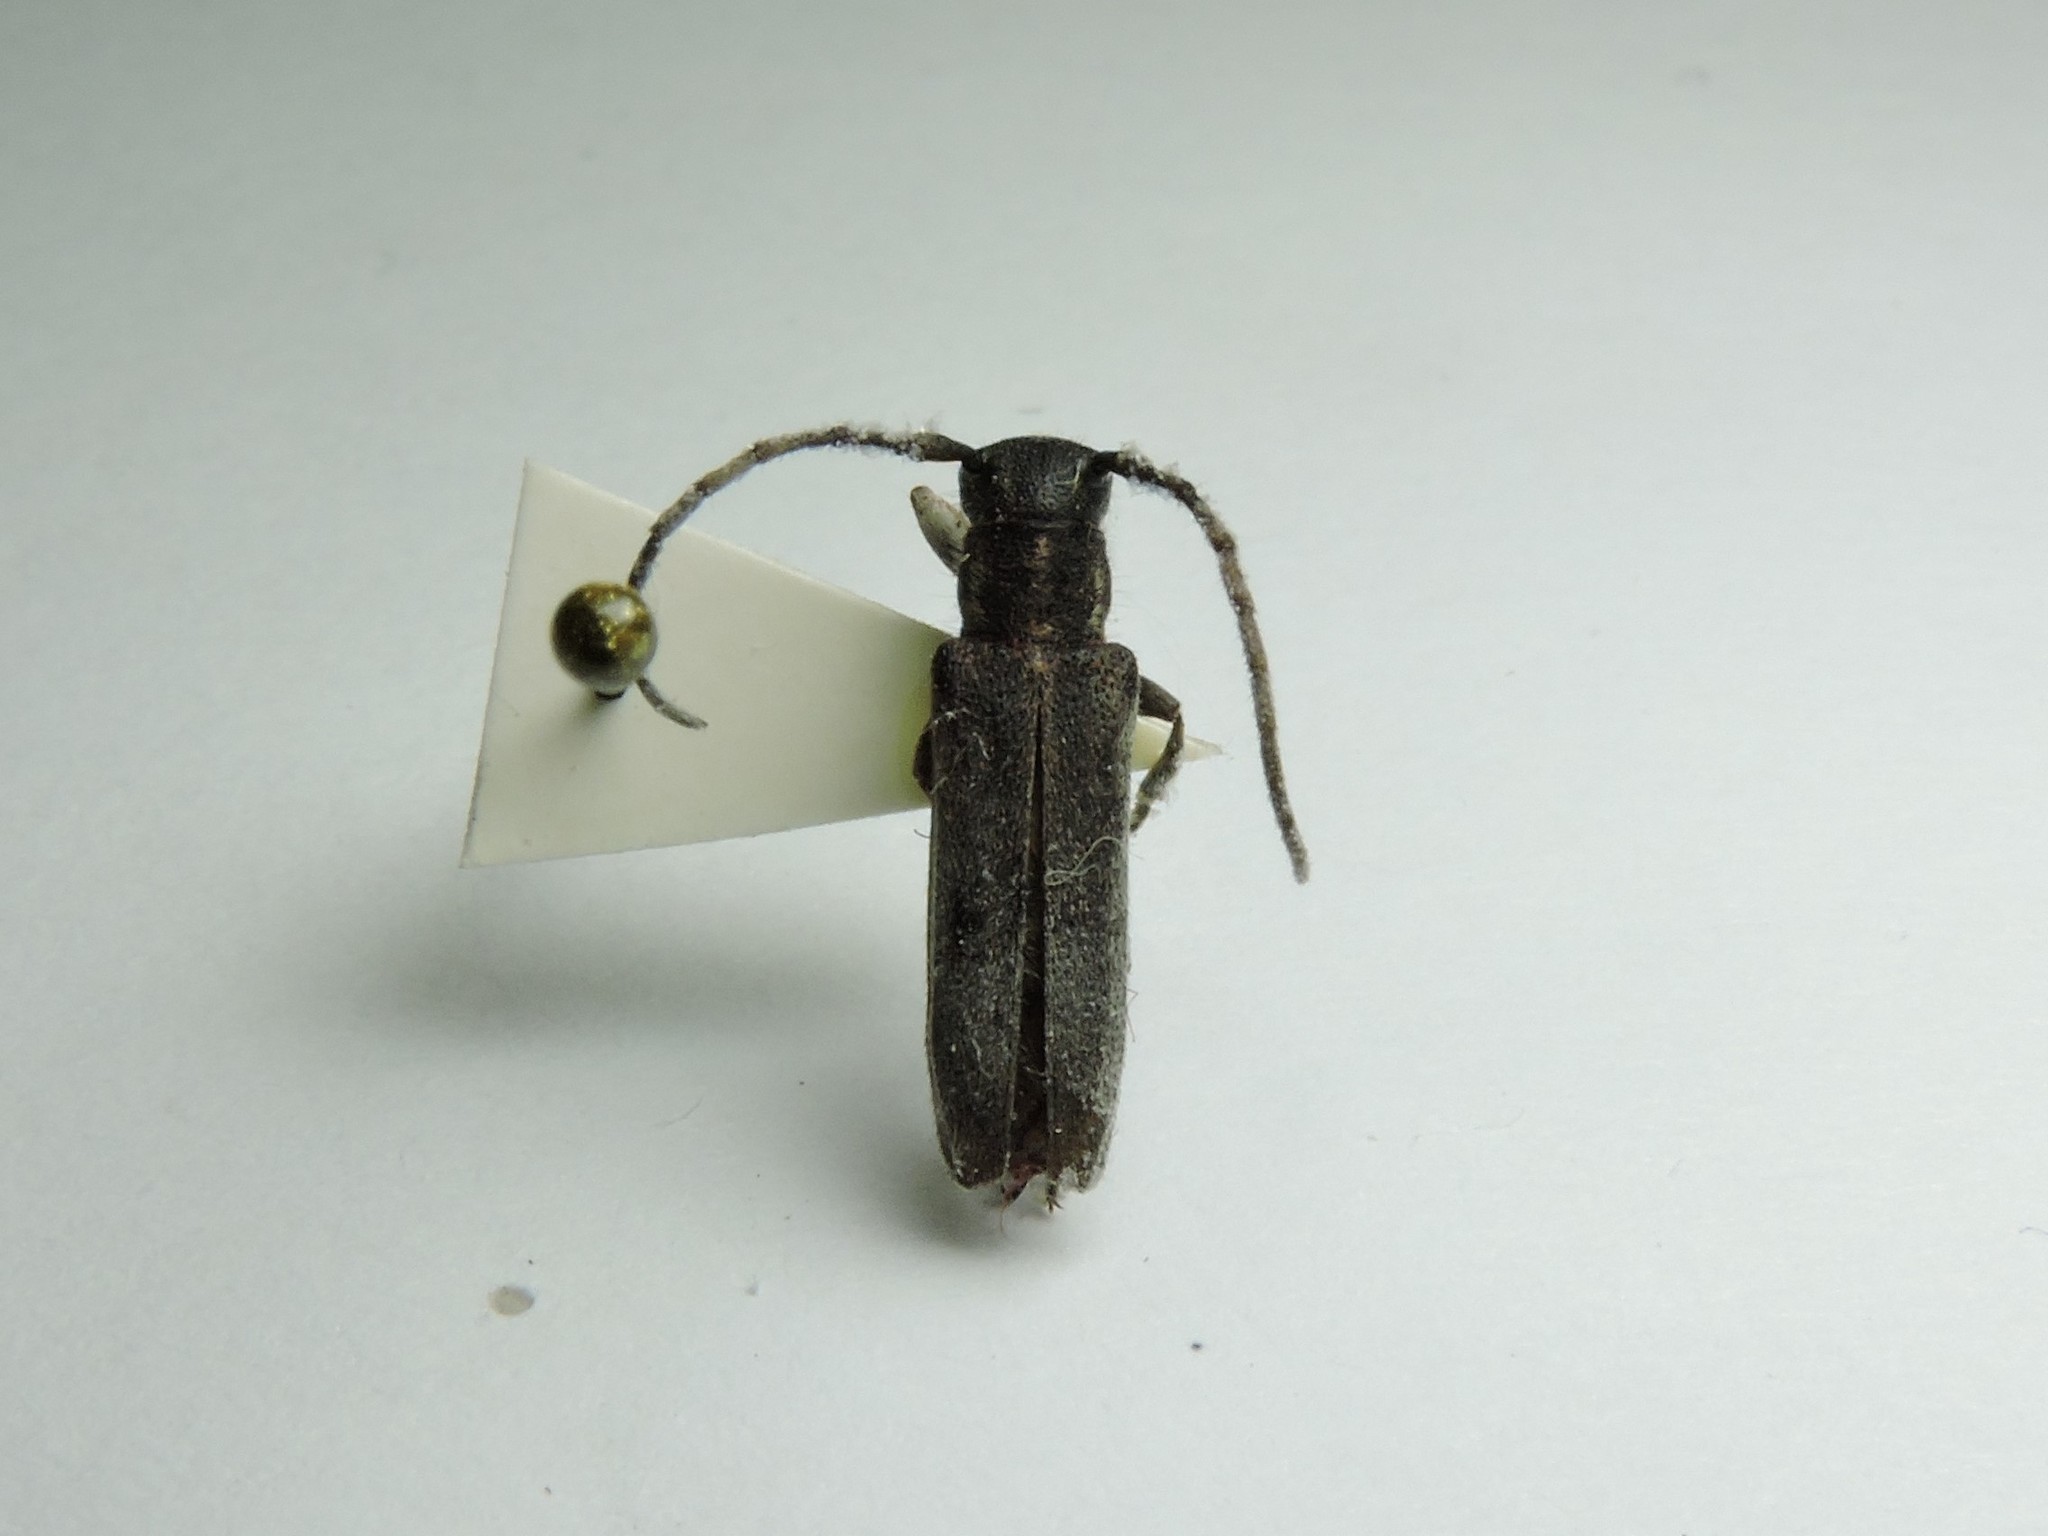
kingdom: Animalia
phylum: Arthropoda
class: Insecta
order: Coleoptera
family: Cerambycidae
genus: Phytoecia
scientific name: Phytoecia nigricornis
